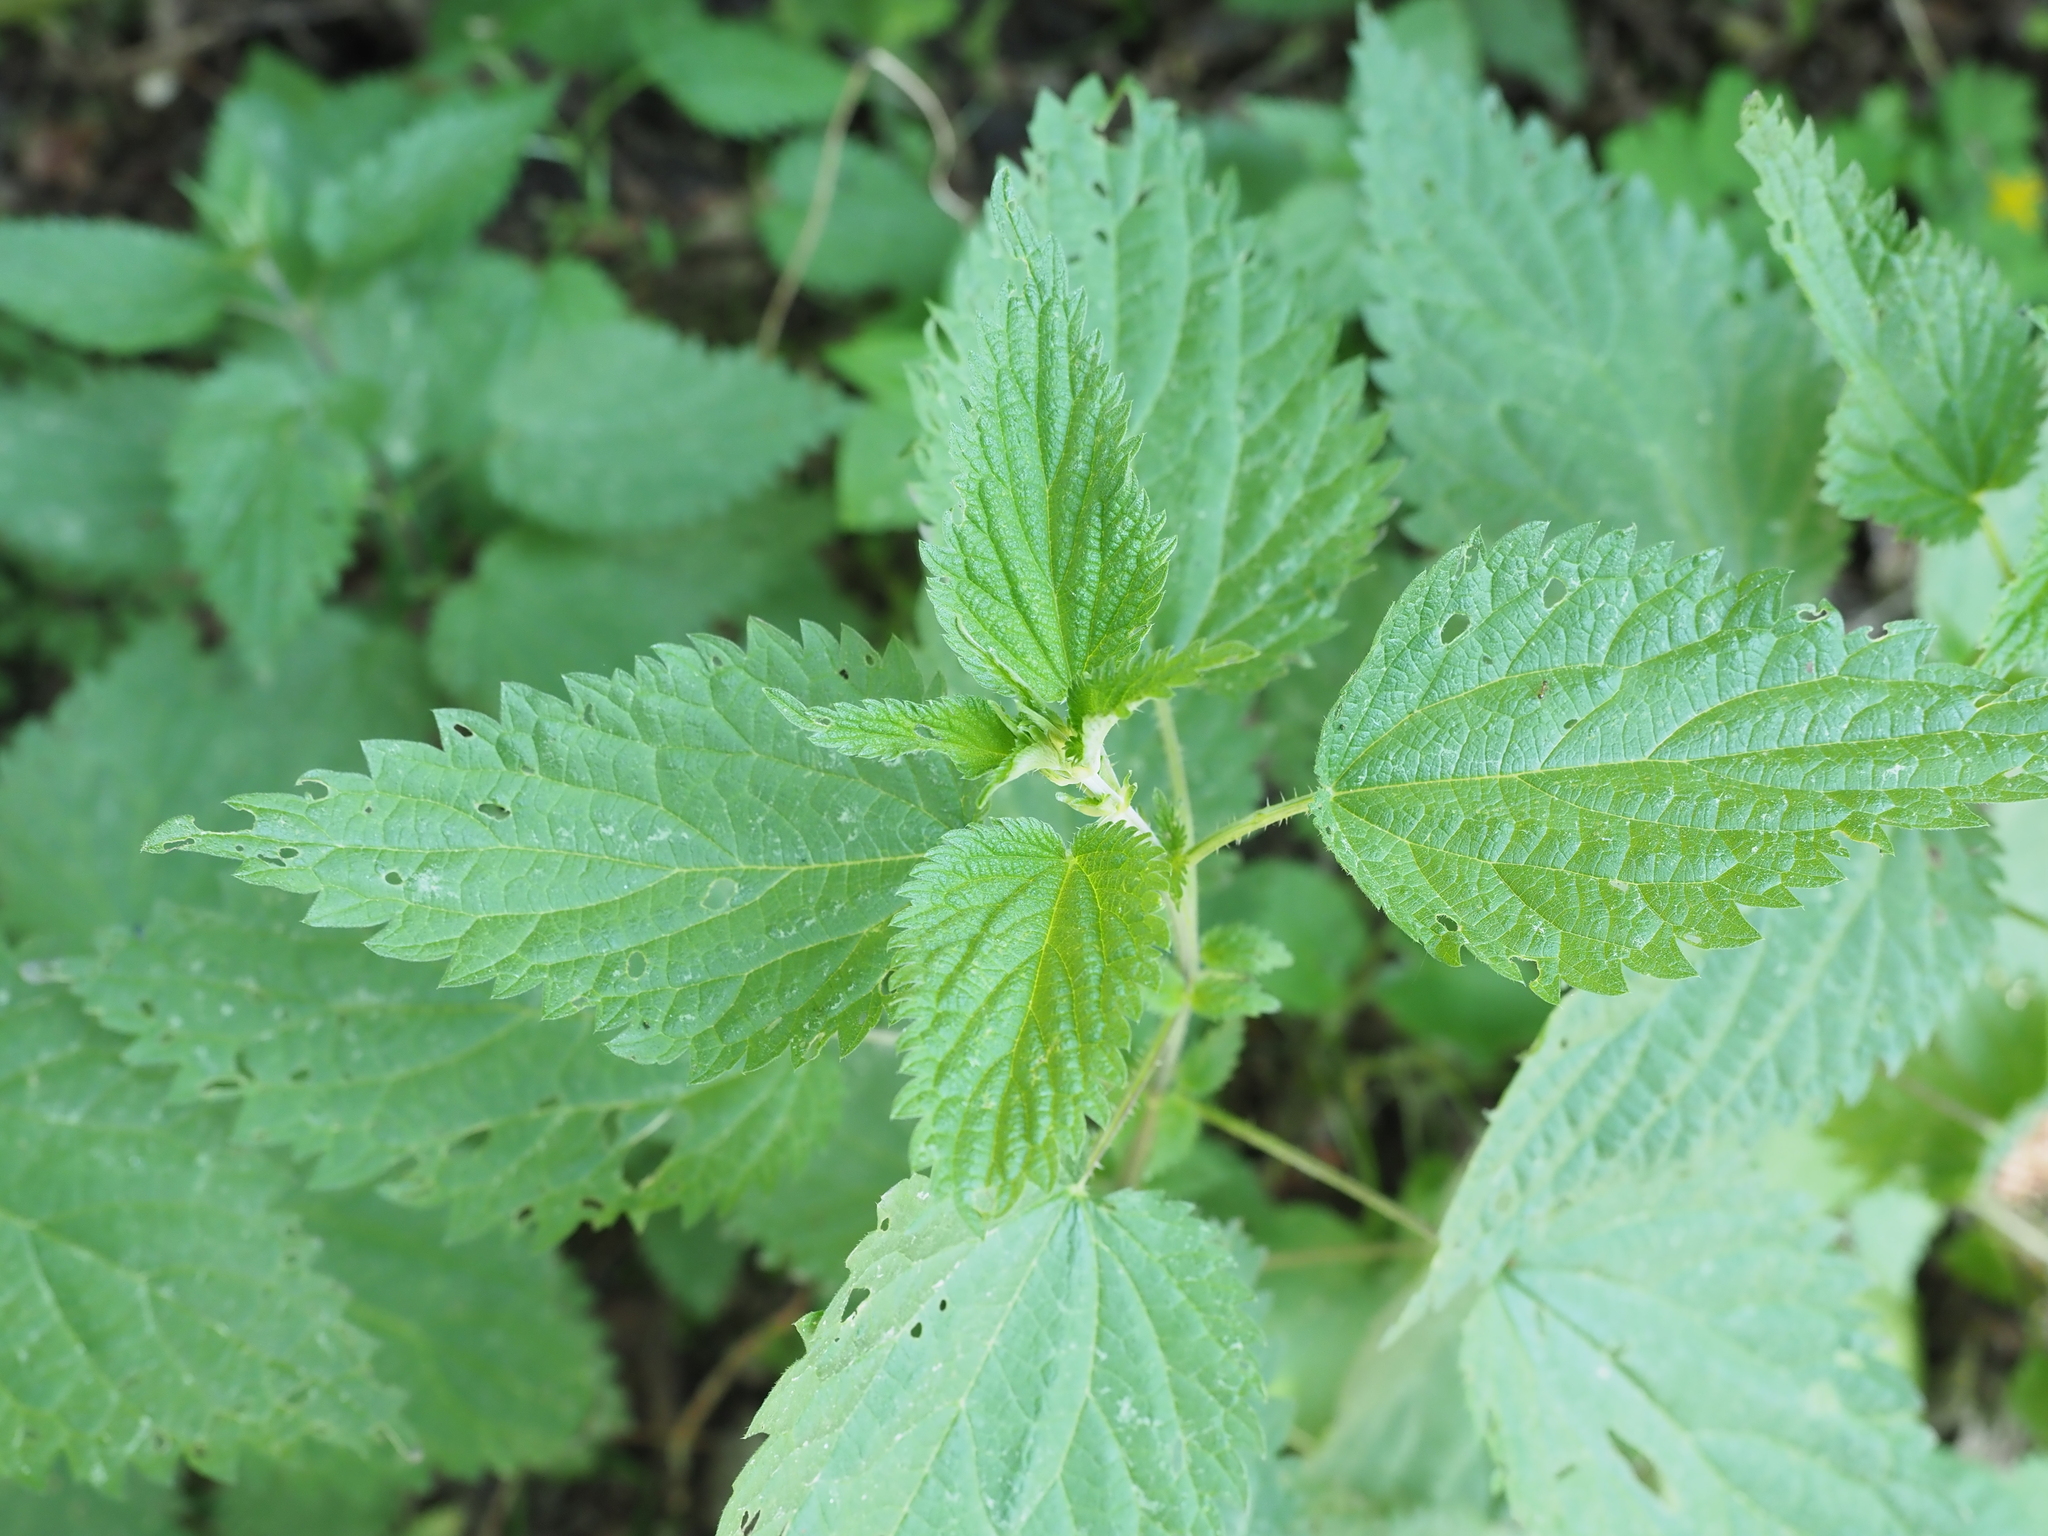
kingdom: Plantae
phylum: Tracheophyta
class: Magnoliopsida
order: Rosales
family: Urticaceae
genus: Urtica
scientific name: Urtica dioica
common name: Common nettle
